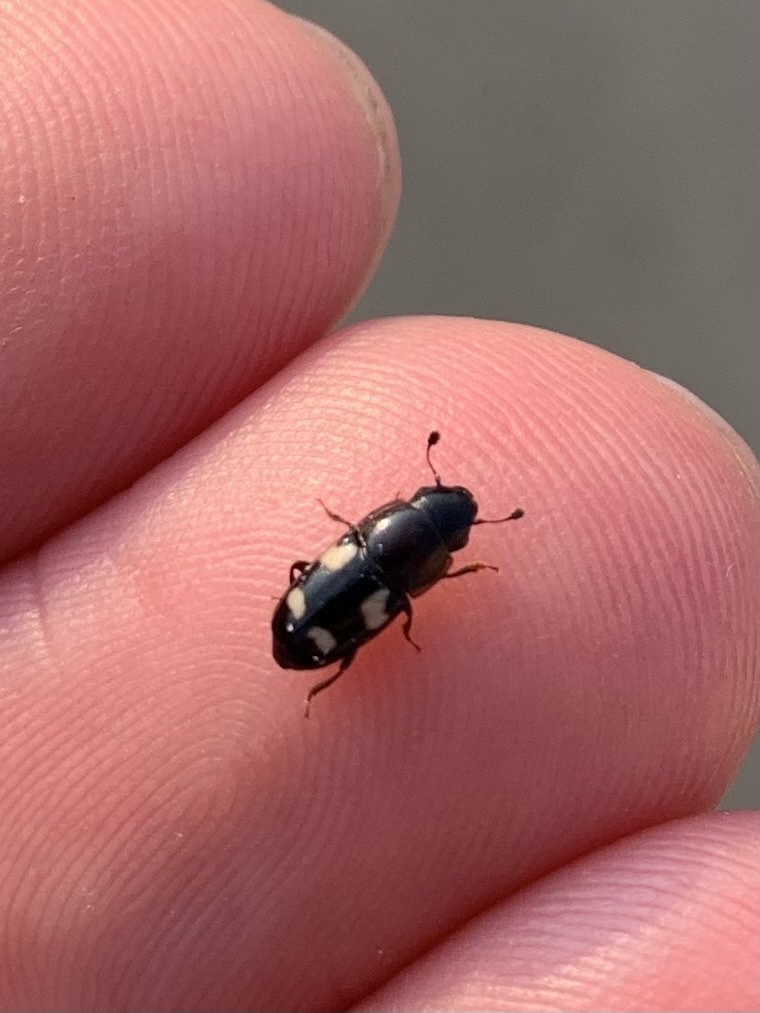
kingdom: Animalia
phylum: Arthropoda
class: Insecta
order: Coleoptera
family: Nitidulidae
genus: Glischrochilus
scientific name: Glischrochilus quadrisignatus
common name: Picnic beetle
